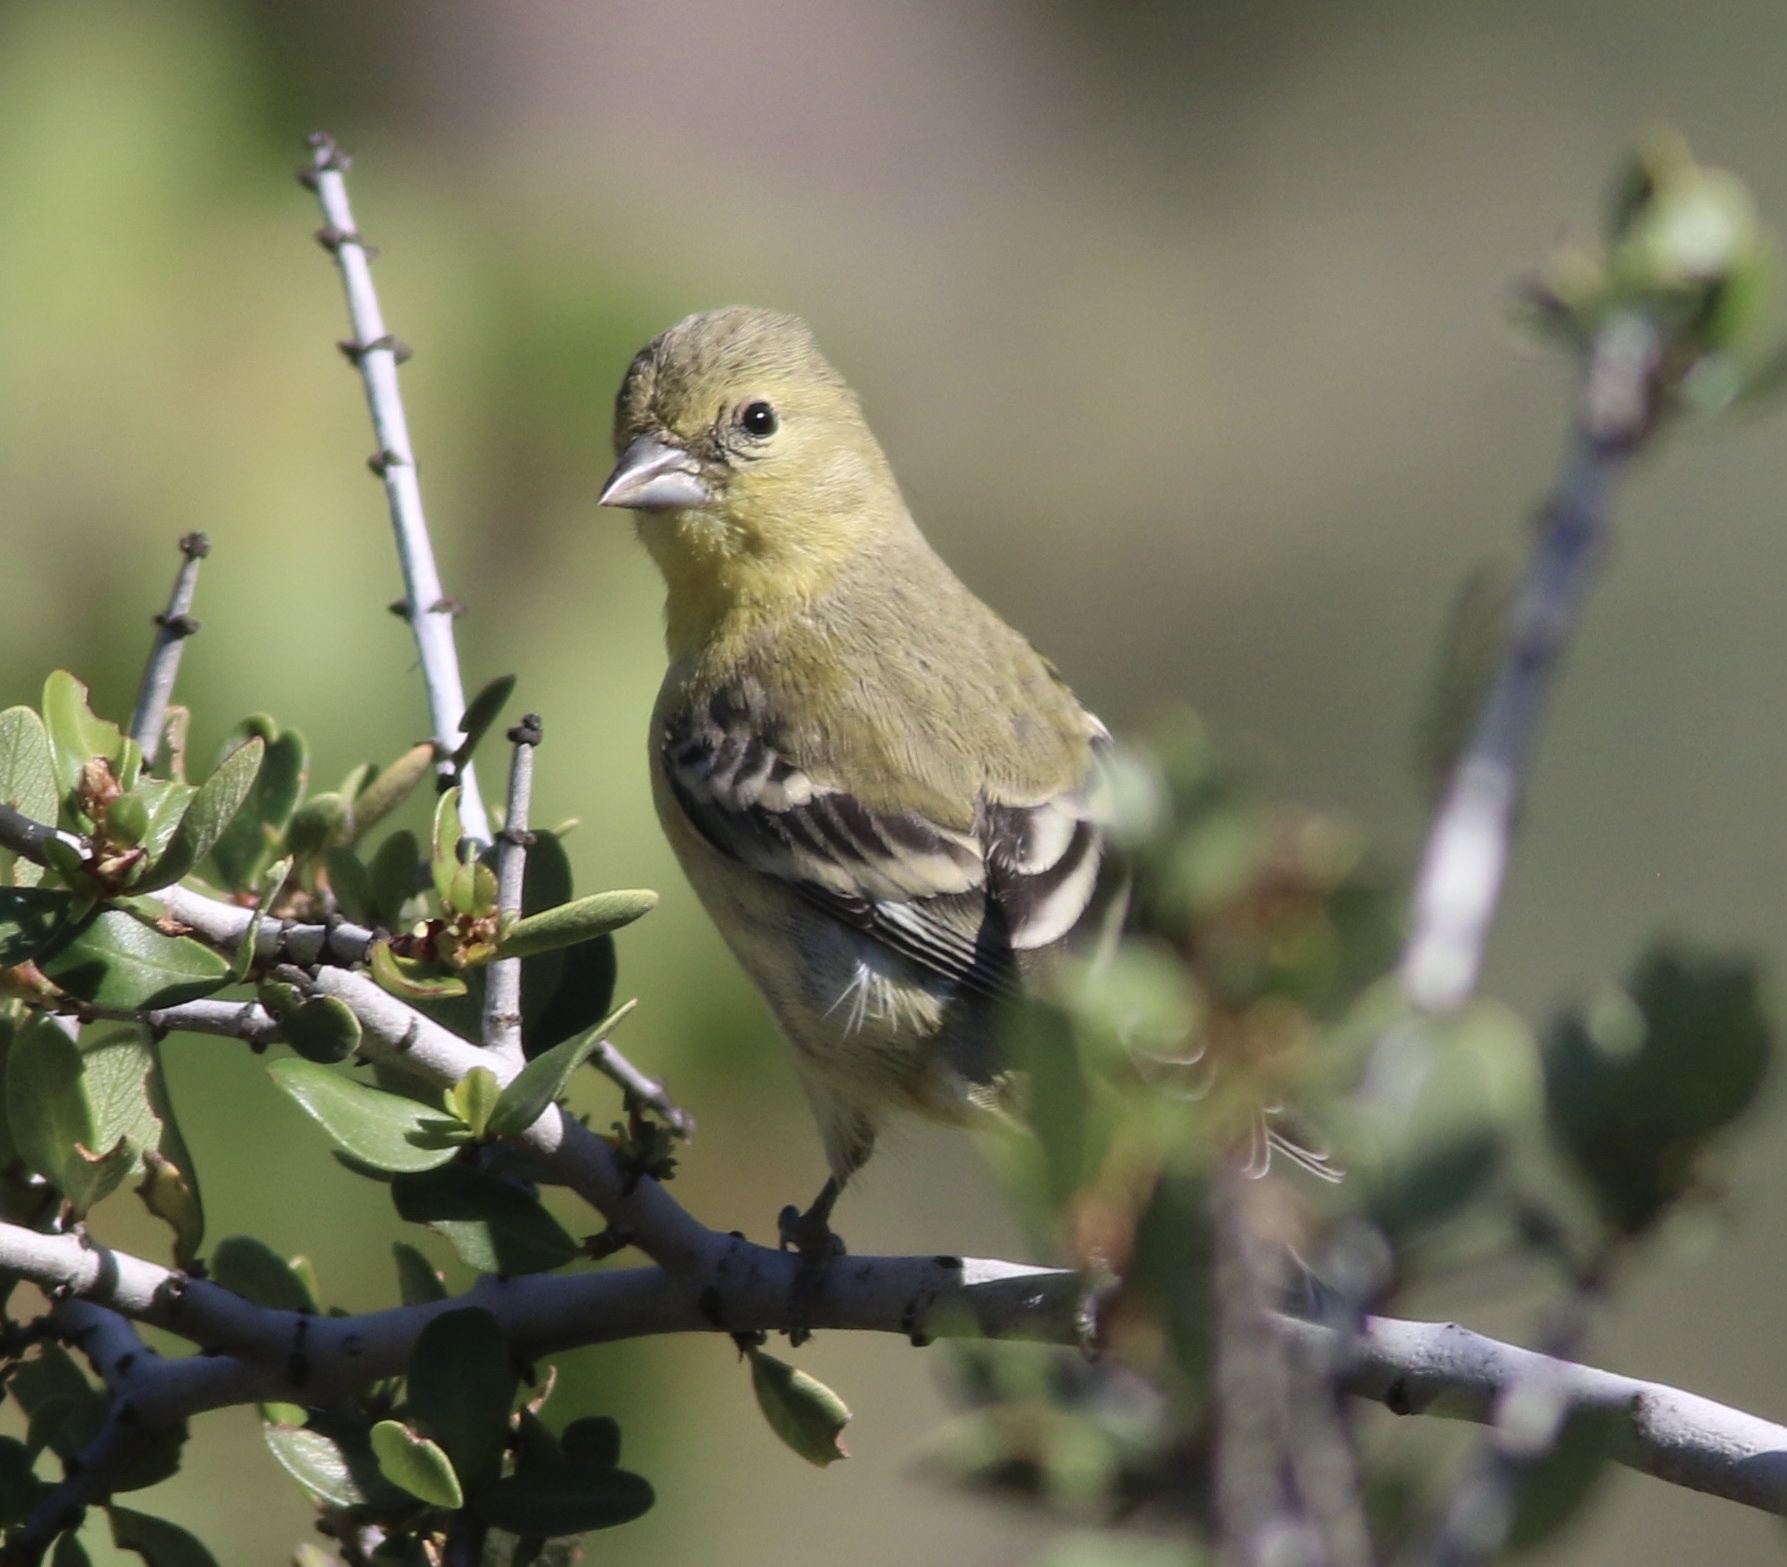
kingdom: Animalia
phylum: Chordata
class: Aves
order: Passeriformes
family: Fringillidae
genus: Spinus
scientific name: Spinus psaltria
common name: Lesser goldfinch
